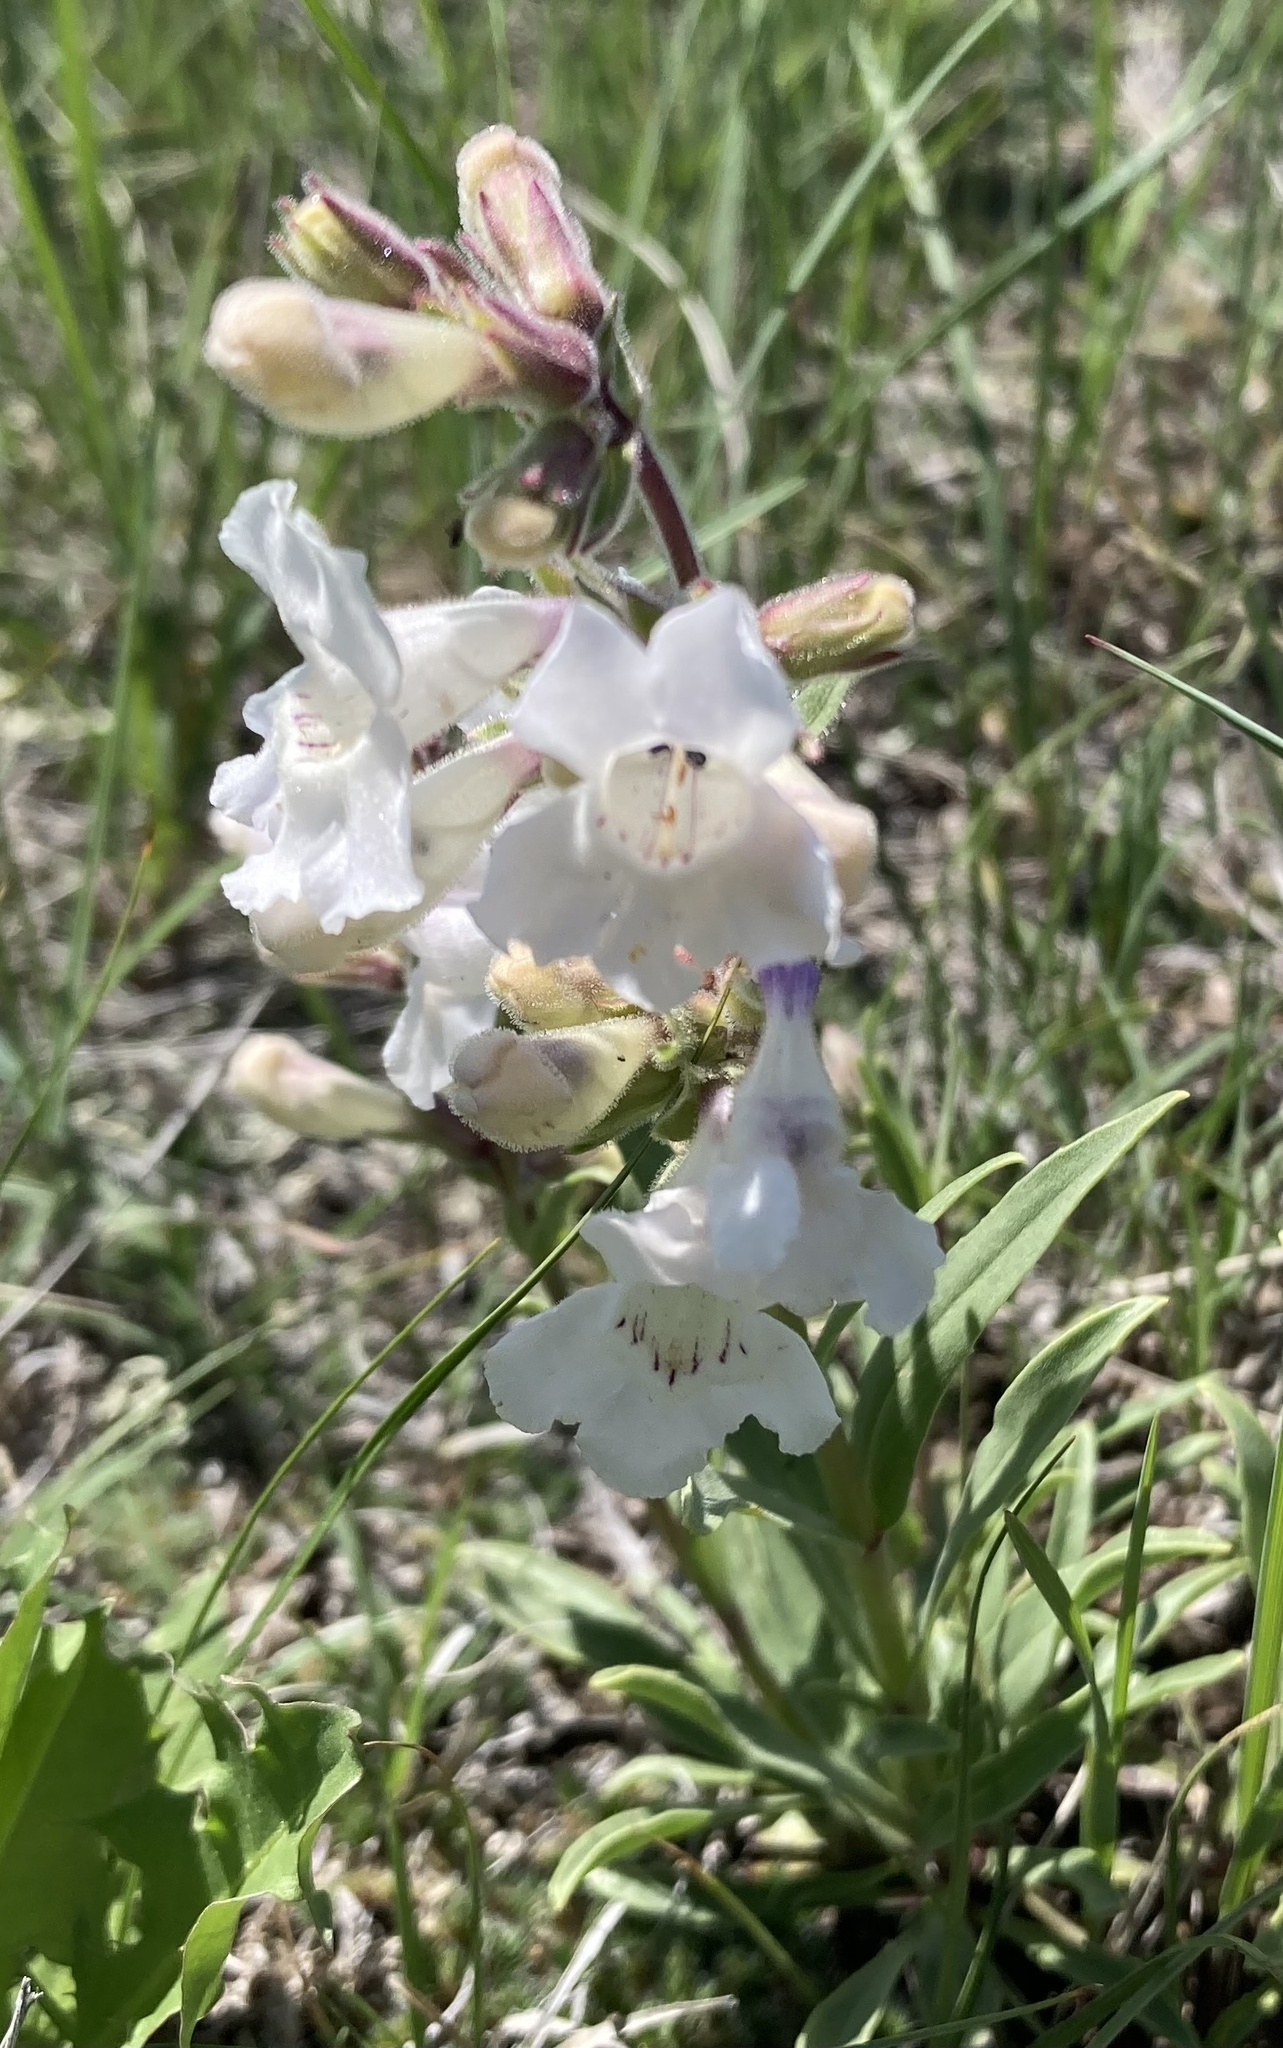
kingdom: Plantae
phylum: Tracheophyta
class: Magnoliopsida
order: Lamiales
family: Plantaginaceae
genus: Penstemon
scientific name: Penstemon albidus
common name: White beardtongue
